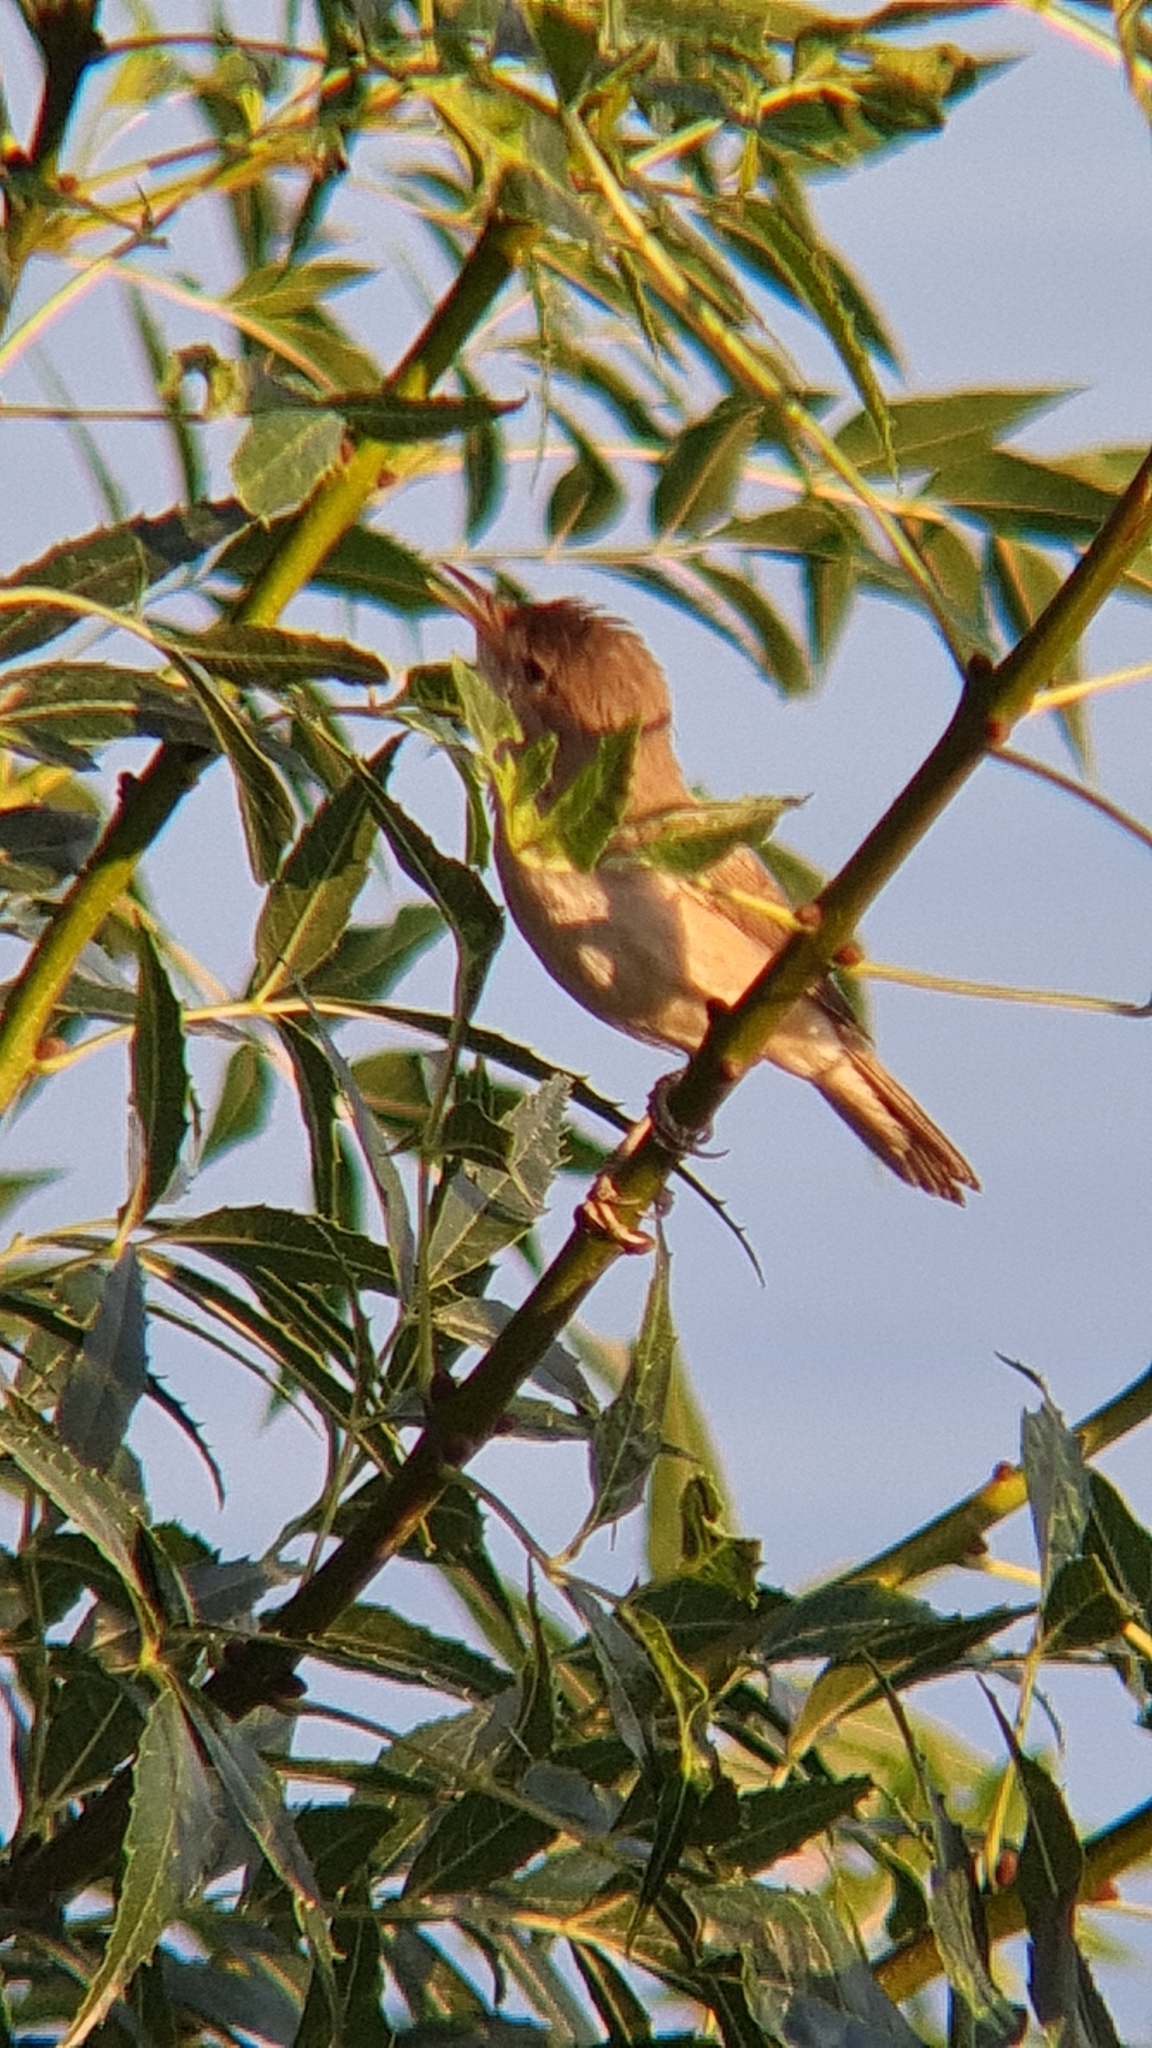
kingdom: Animalia
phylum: Chordata
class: Aves
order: Passeriformes
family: Acrocephalidae
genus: Acrocephalus
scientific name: Acrocephalus scirpaceus
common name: Eurasian reed warbler
